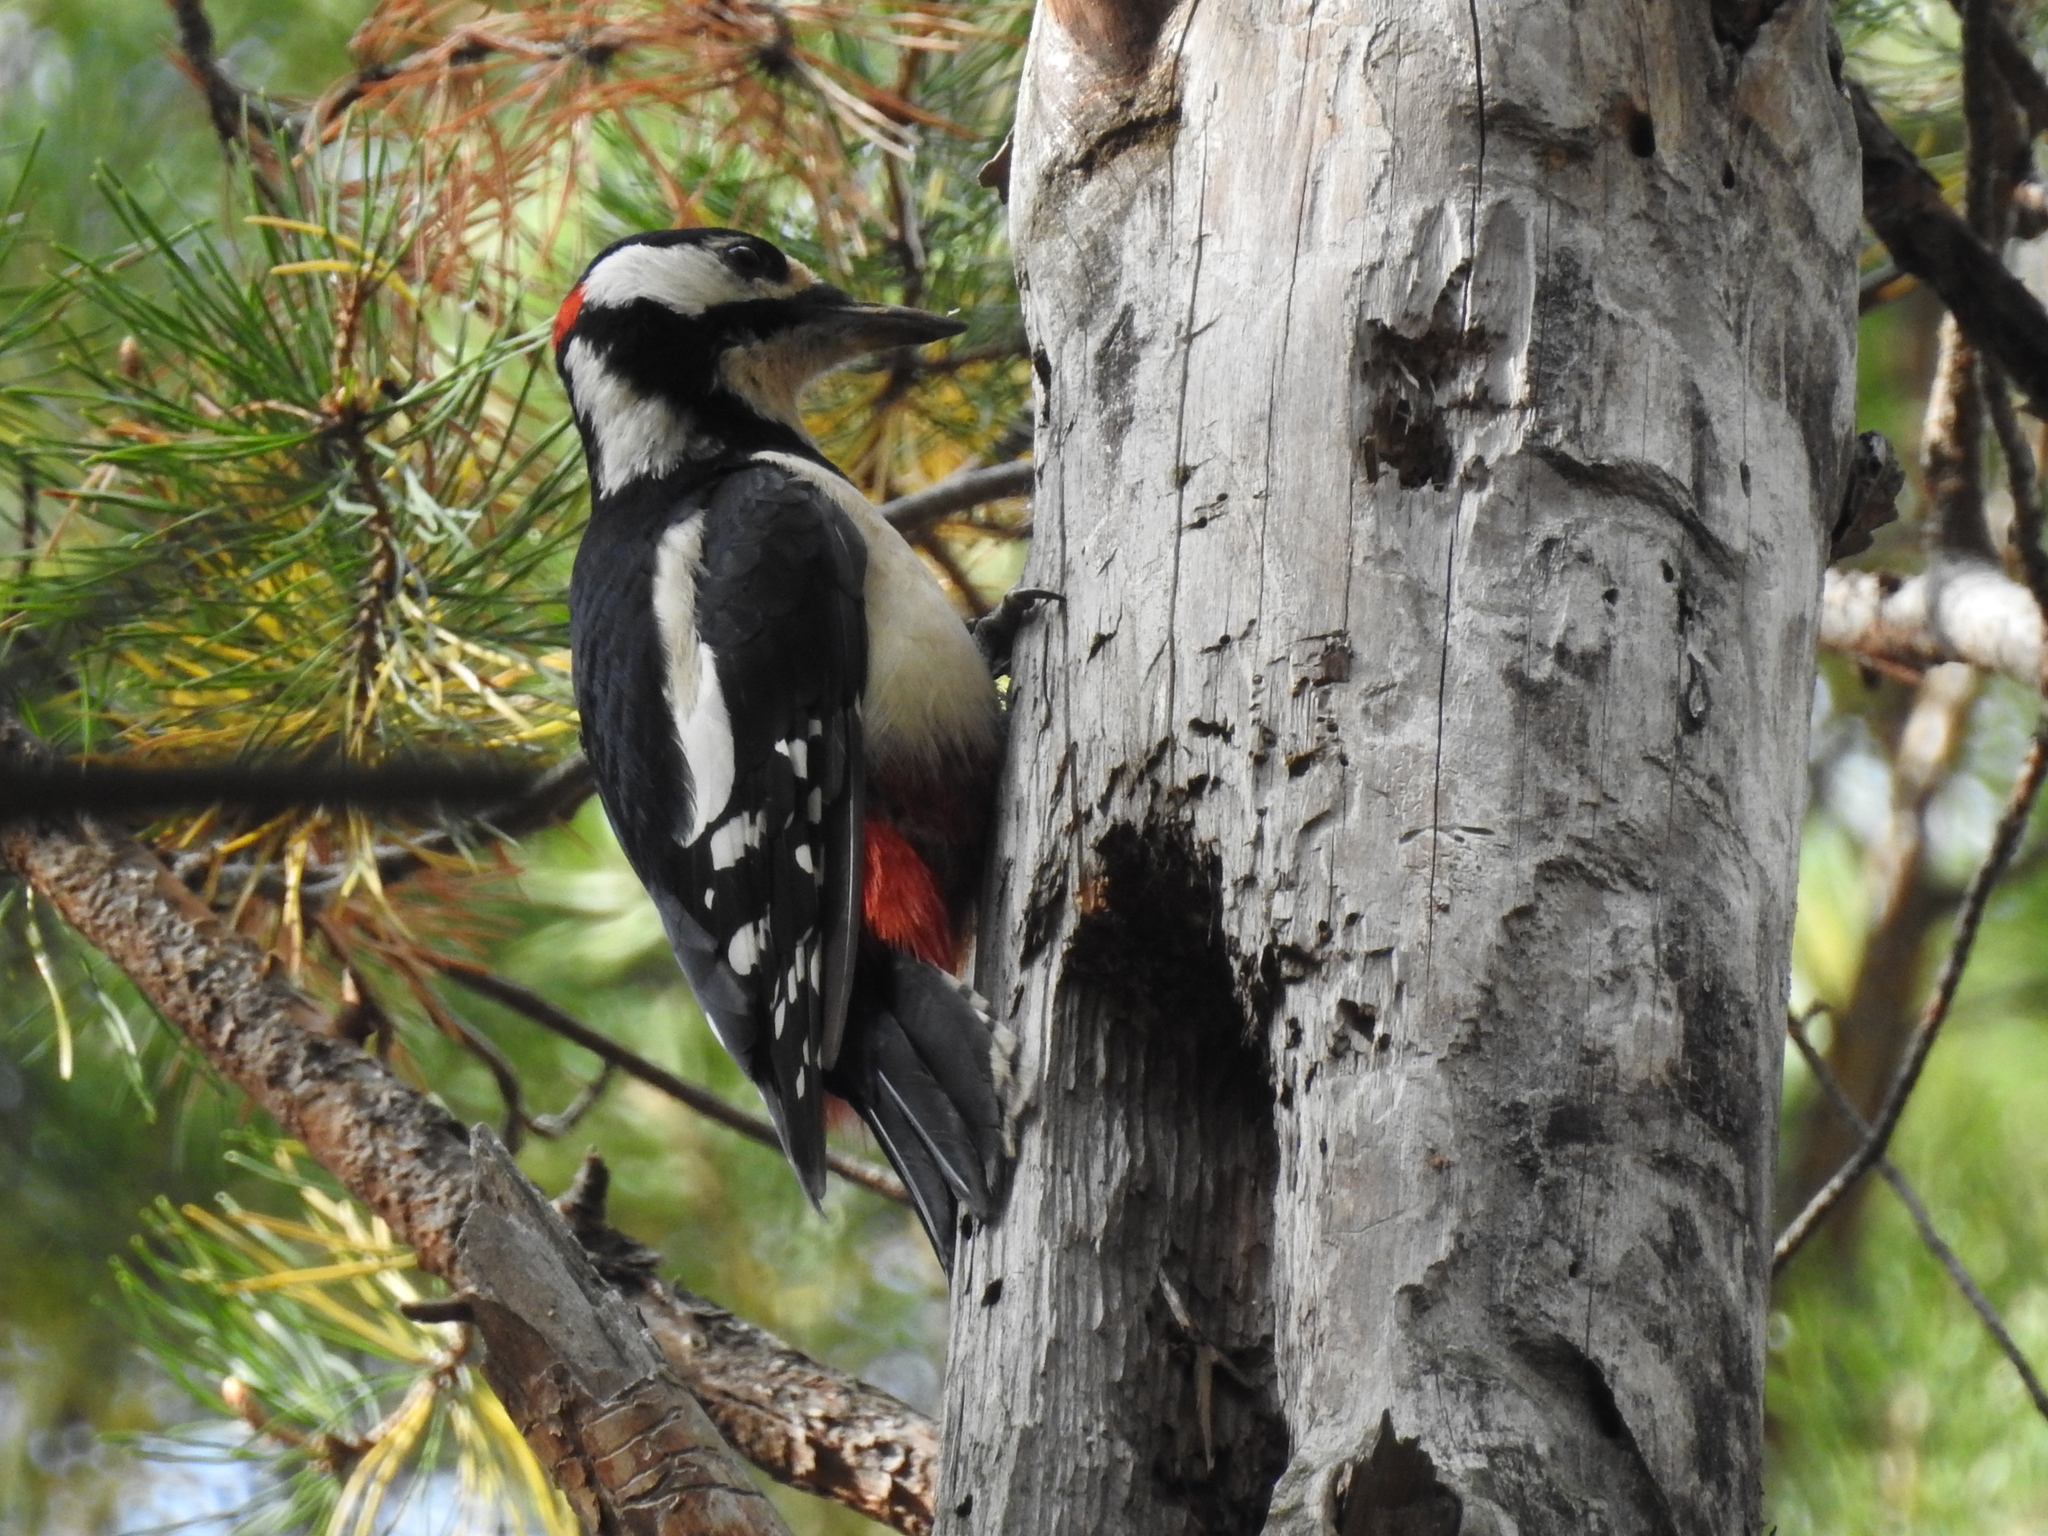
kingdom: Animalia
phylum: Chordata
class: Aves
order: Piciformes
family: Picidae
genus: Dendrocopos
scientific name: Dendrocopos major
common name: Great spotted woodpecker
